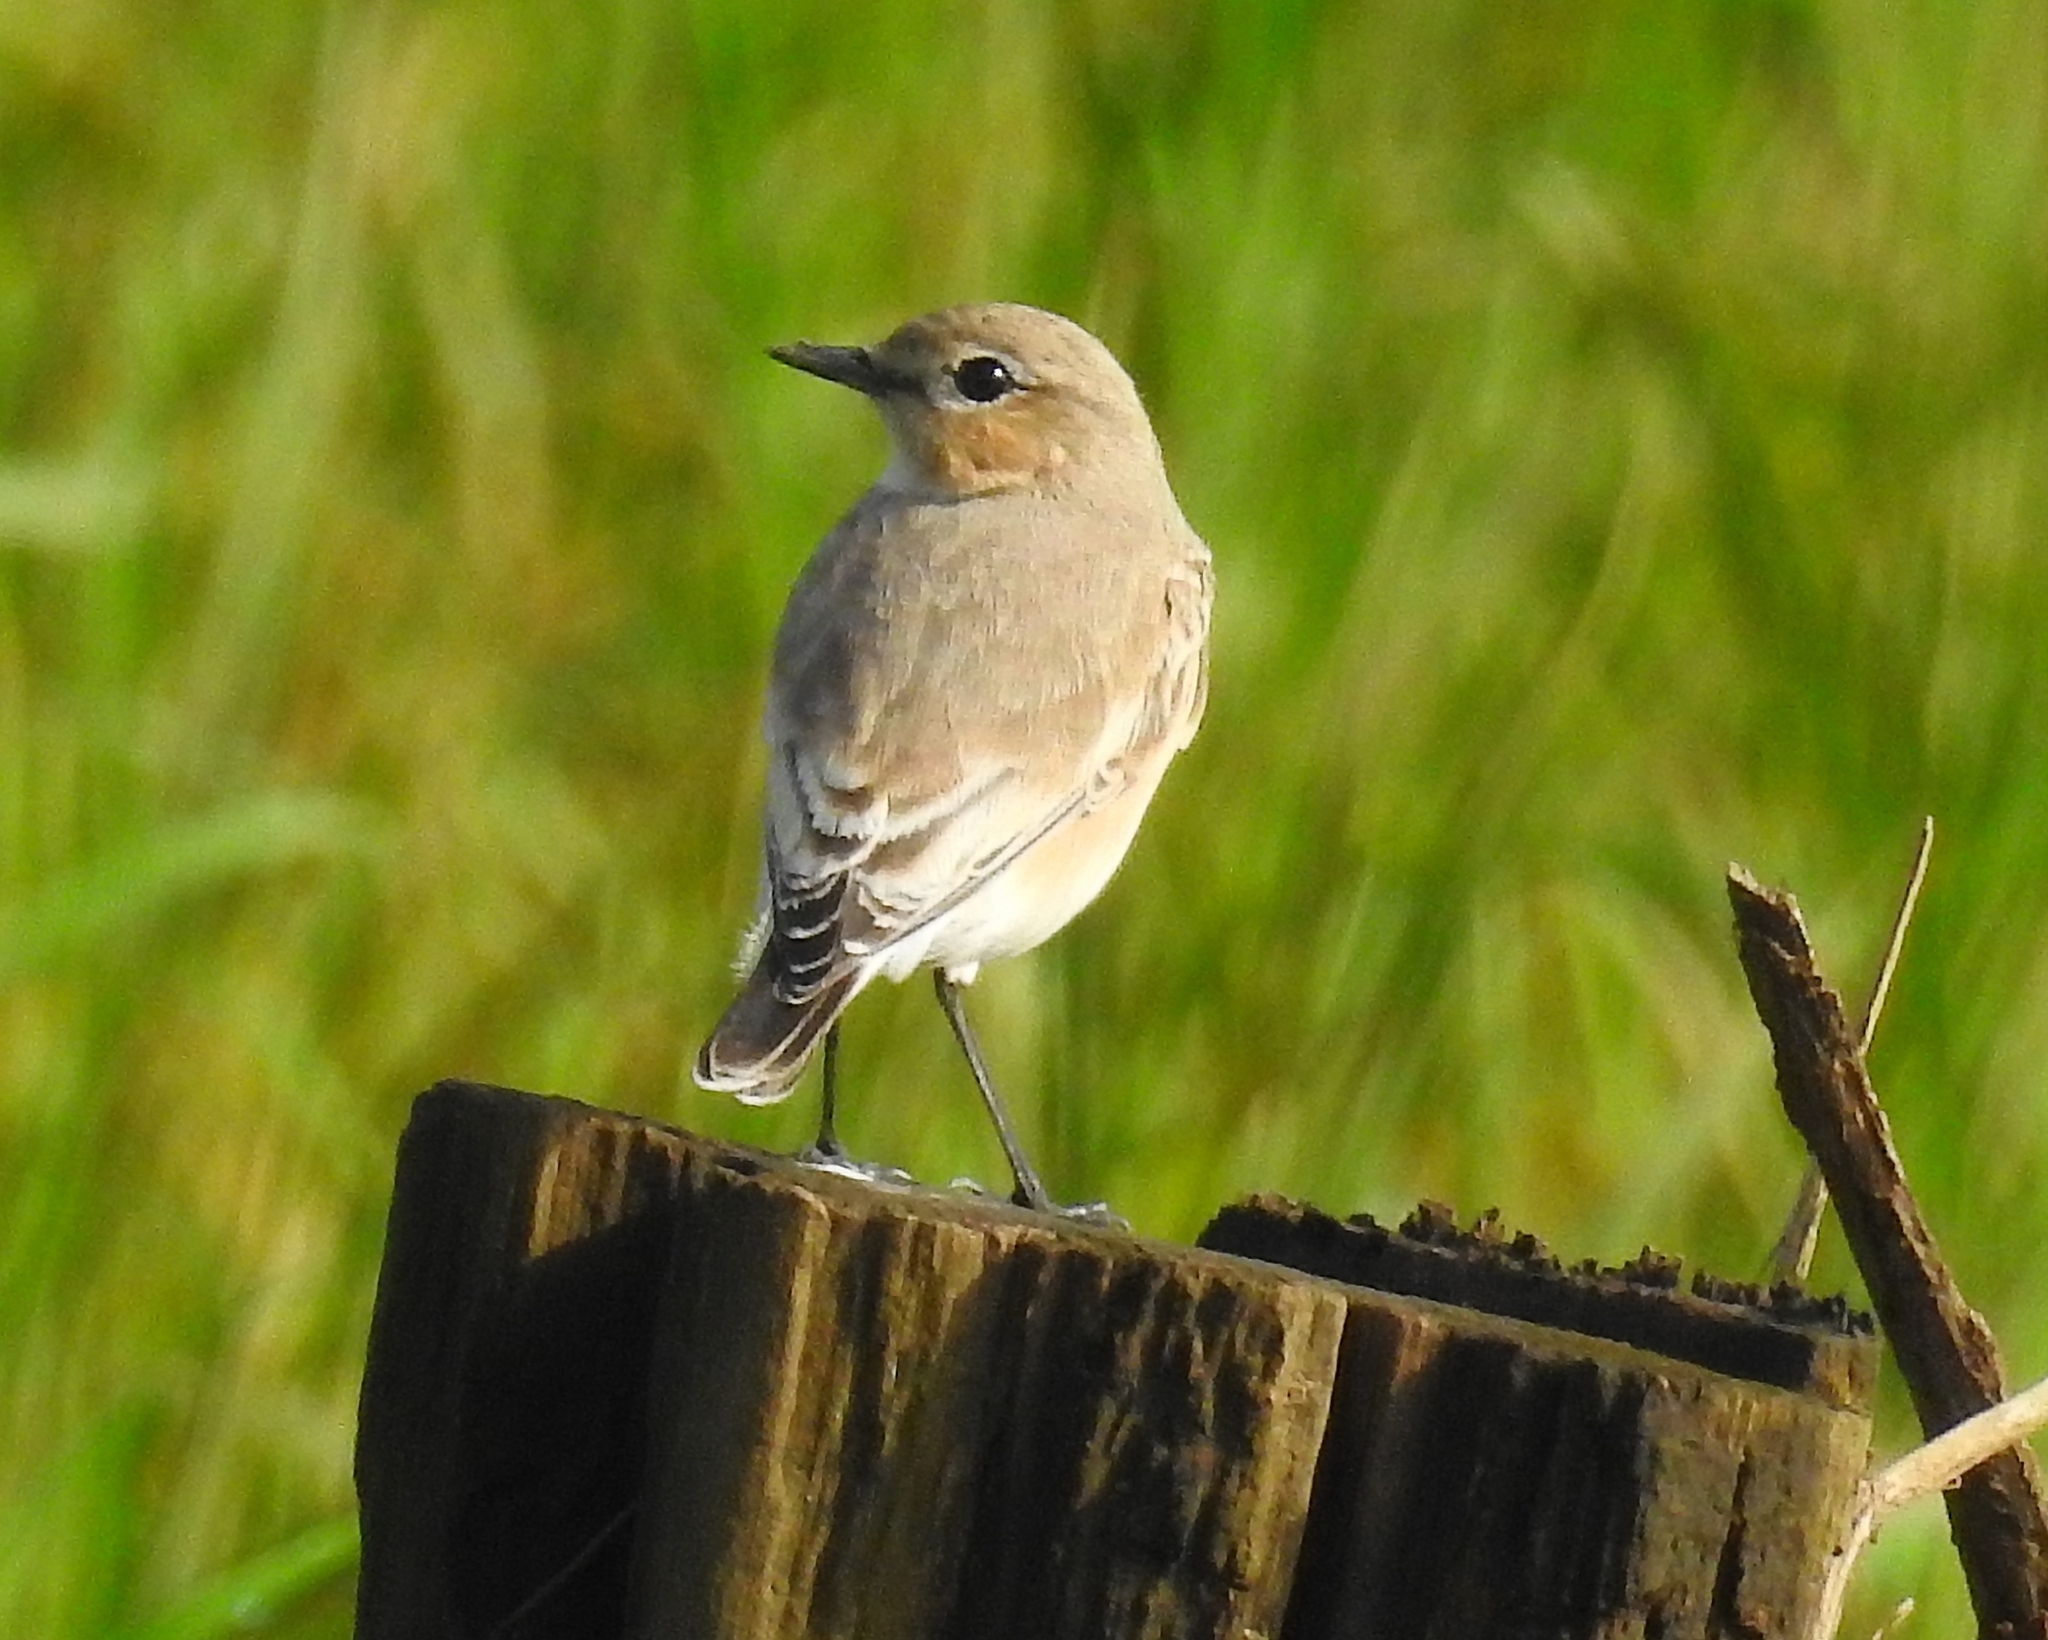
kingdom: Animalia
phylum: Chordata
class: Aves
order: Passeriformes
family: Muscicapidae
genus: Oenanthe
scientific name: Oenanthe isabellina
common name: Isabelline wheatear
